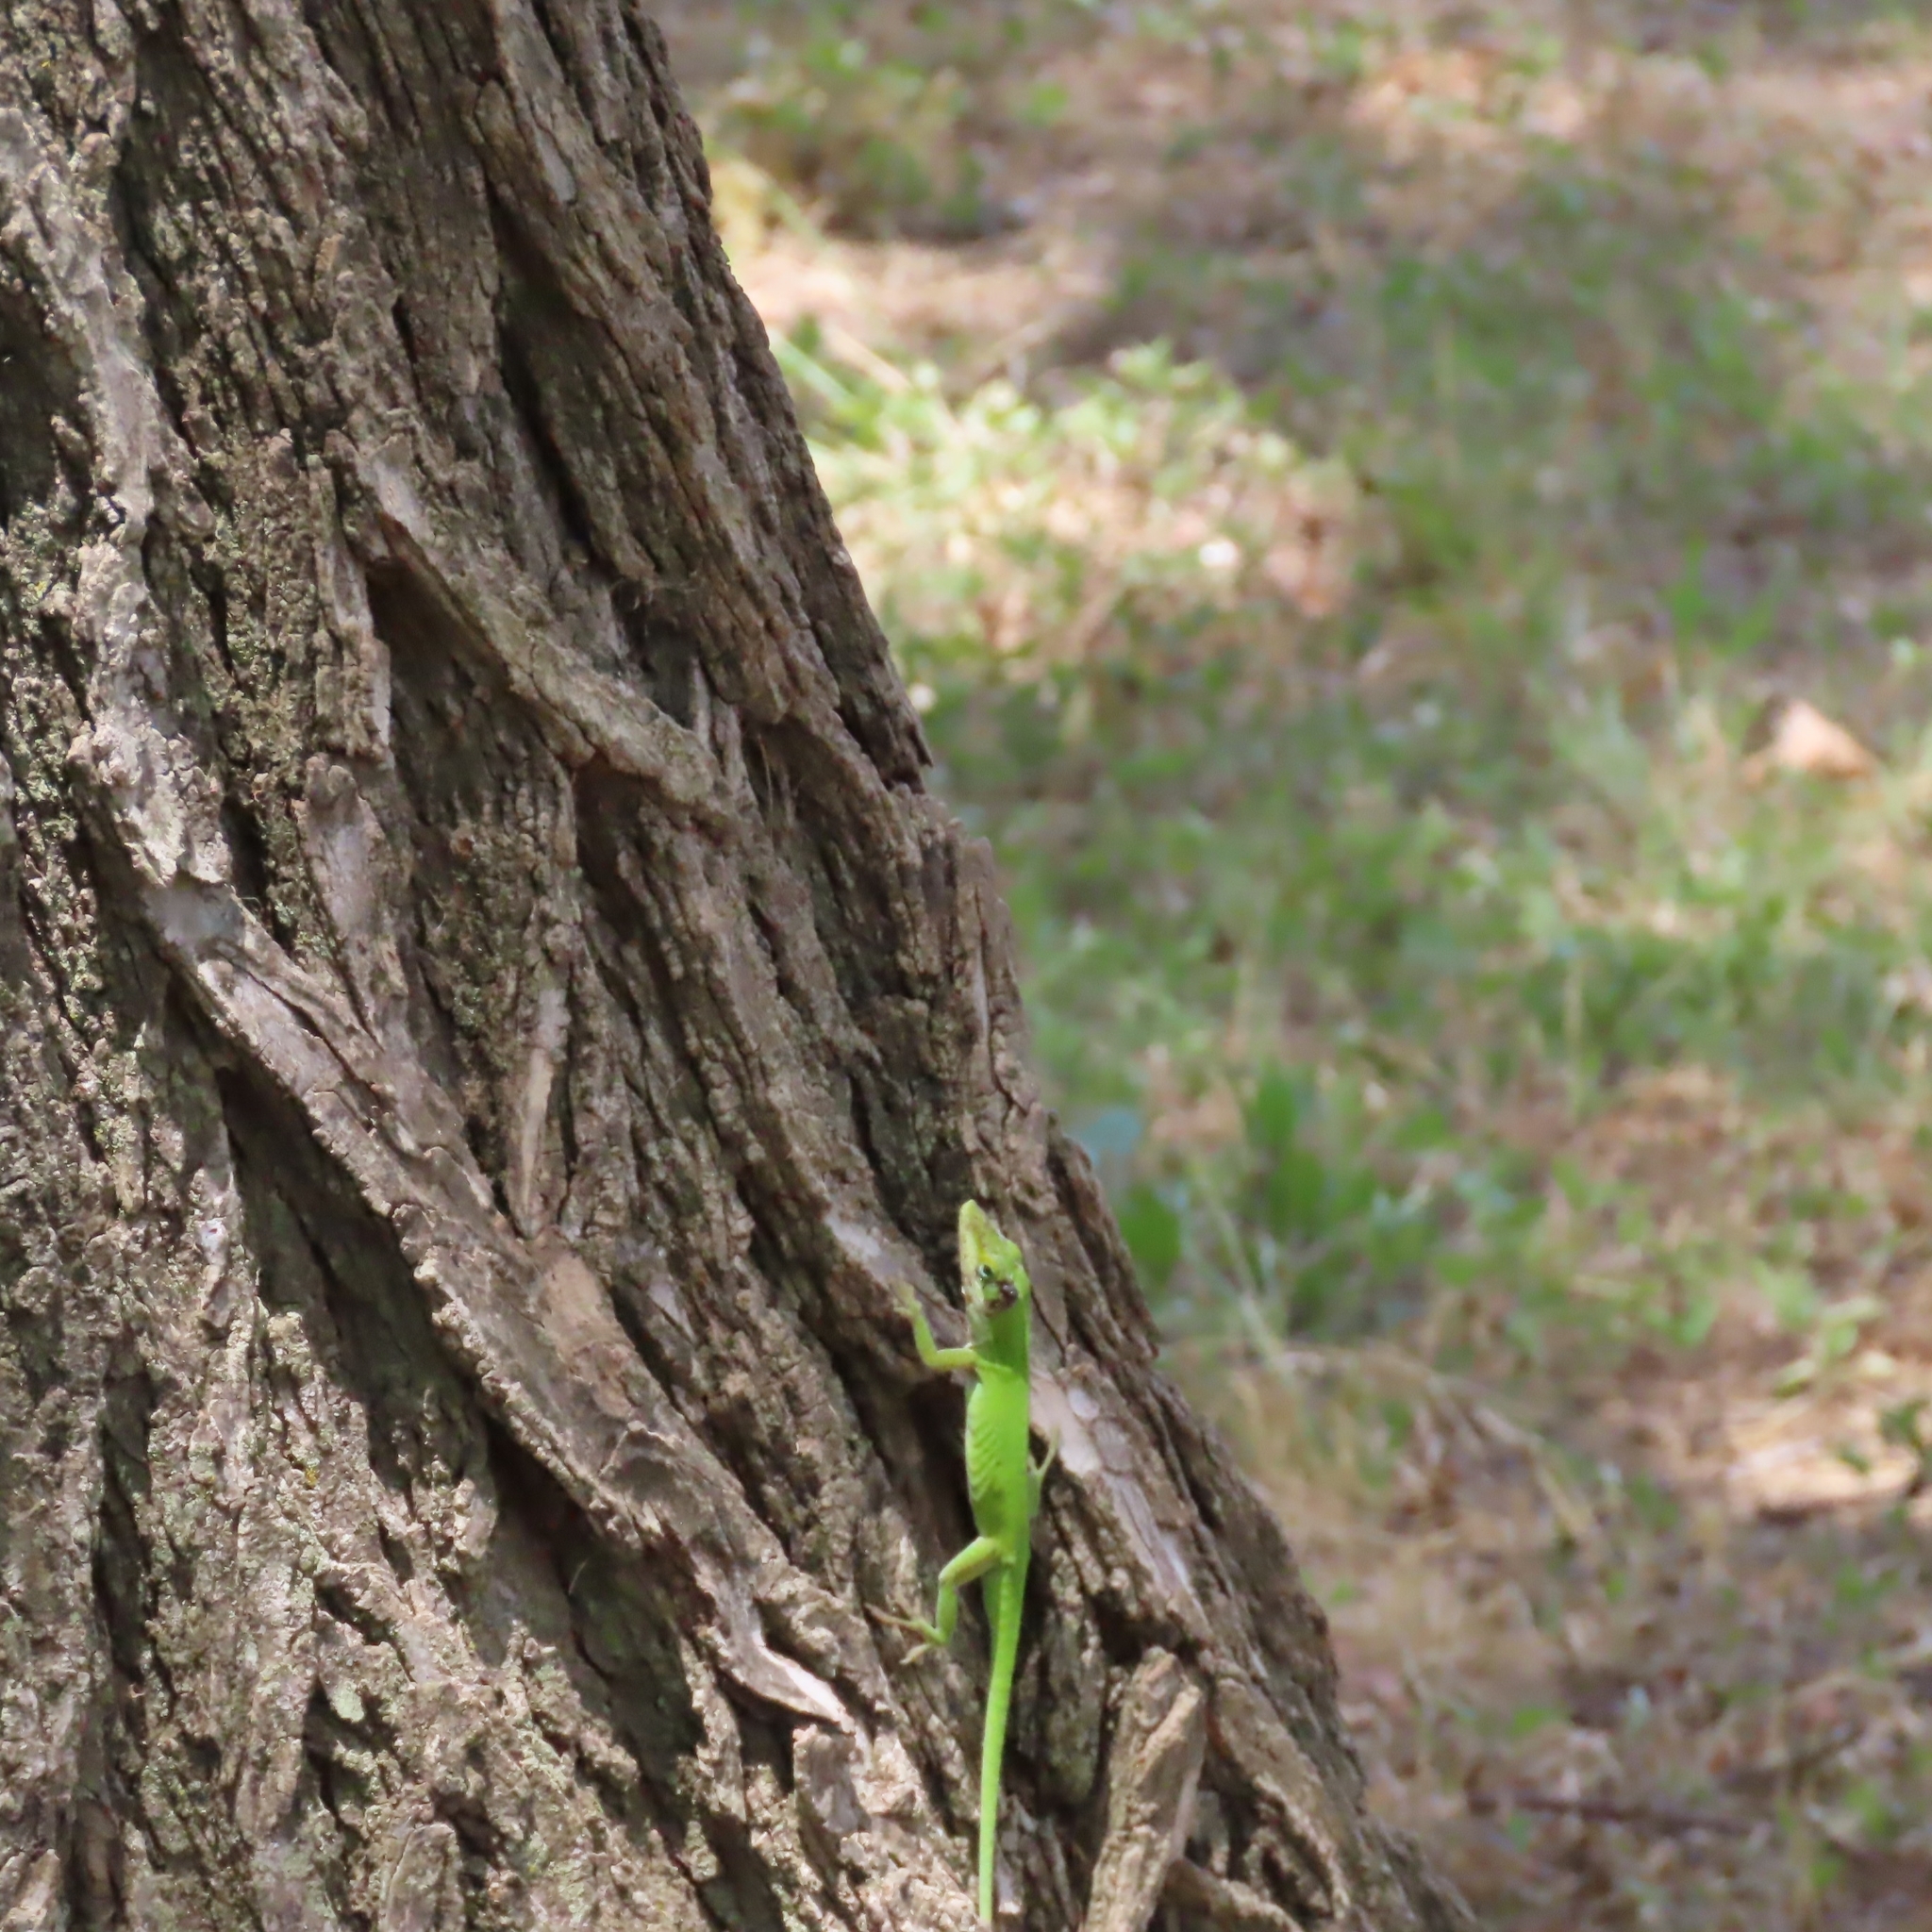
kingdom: Animalia
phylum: Chordata
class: Squamata
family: Dactyloidae
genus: Anolis
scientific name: Anolis carolinensis
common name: Green anole
